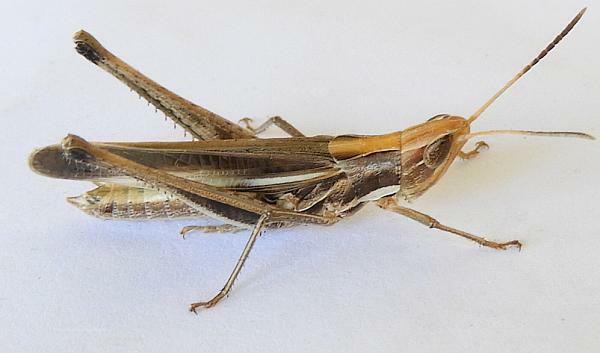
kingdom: Animalia
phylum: Arthropoda
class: Insecta
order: Orthoptera
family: Acrididae
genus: Syrbula
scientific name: Syrbula montezuma
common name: Montezuma's grasshopper
